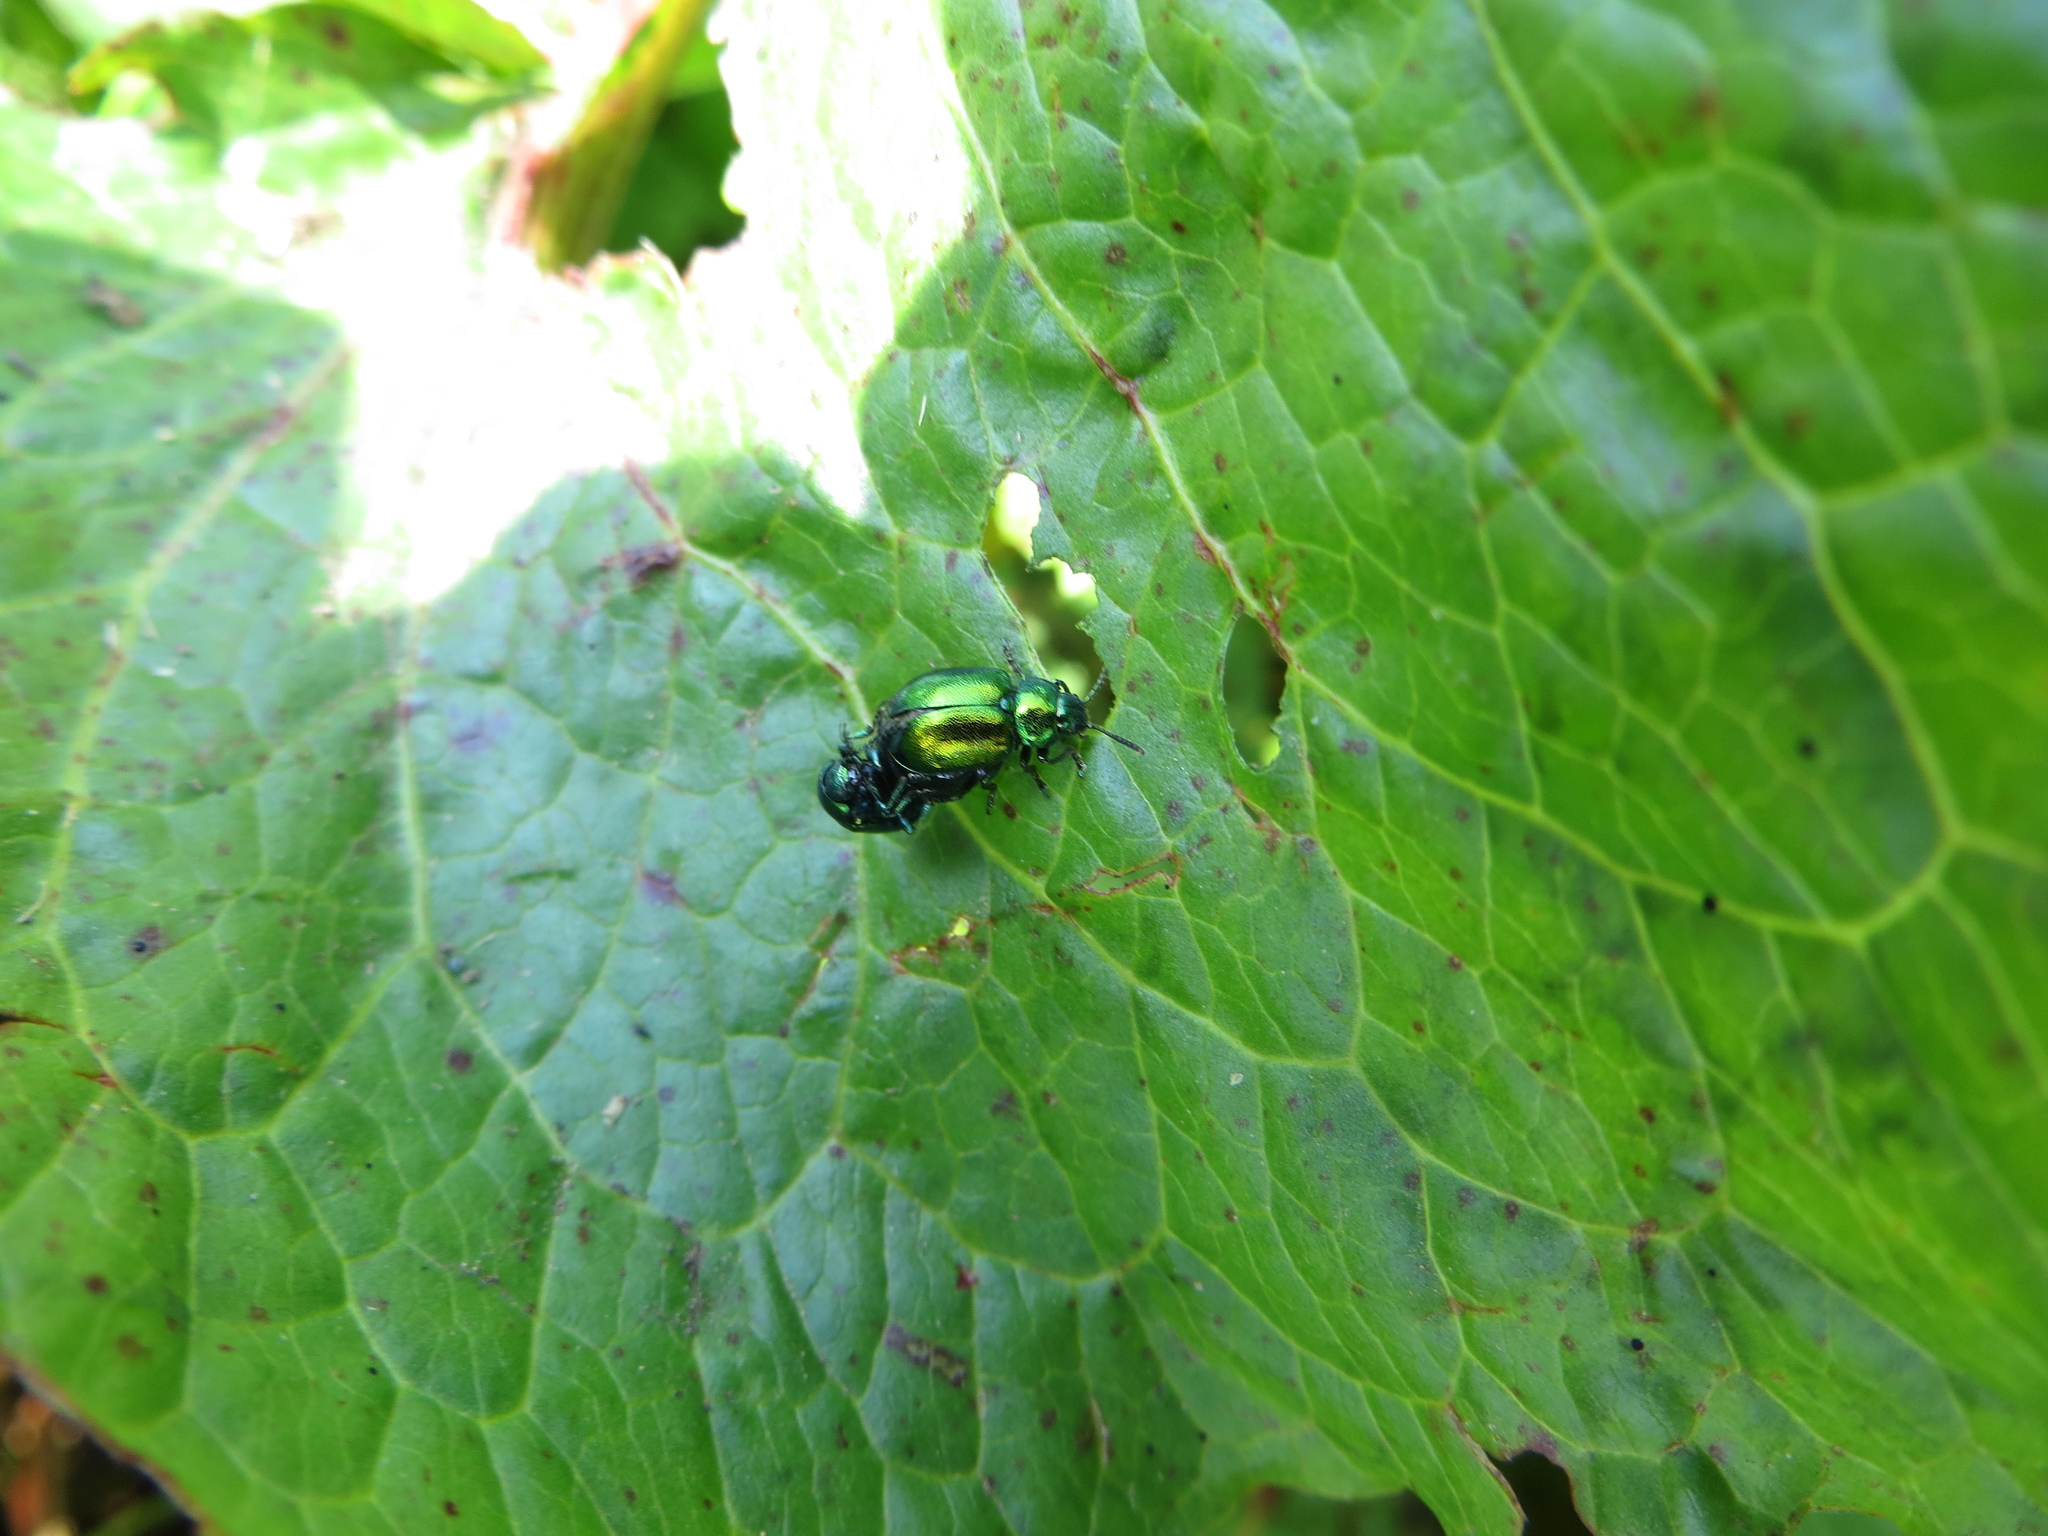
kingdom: Animalia
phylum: Arthropoda
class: Insecta
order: Coleoptera
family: Chrysomelidae
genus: Gastrophysa
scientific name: Gastrophysa viridula
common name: Green dock beetle
